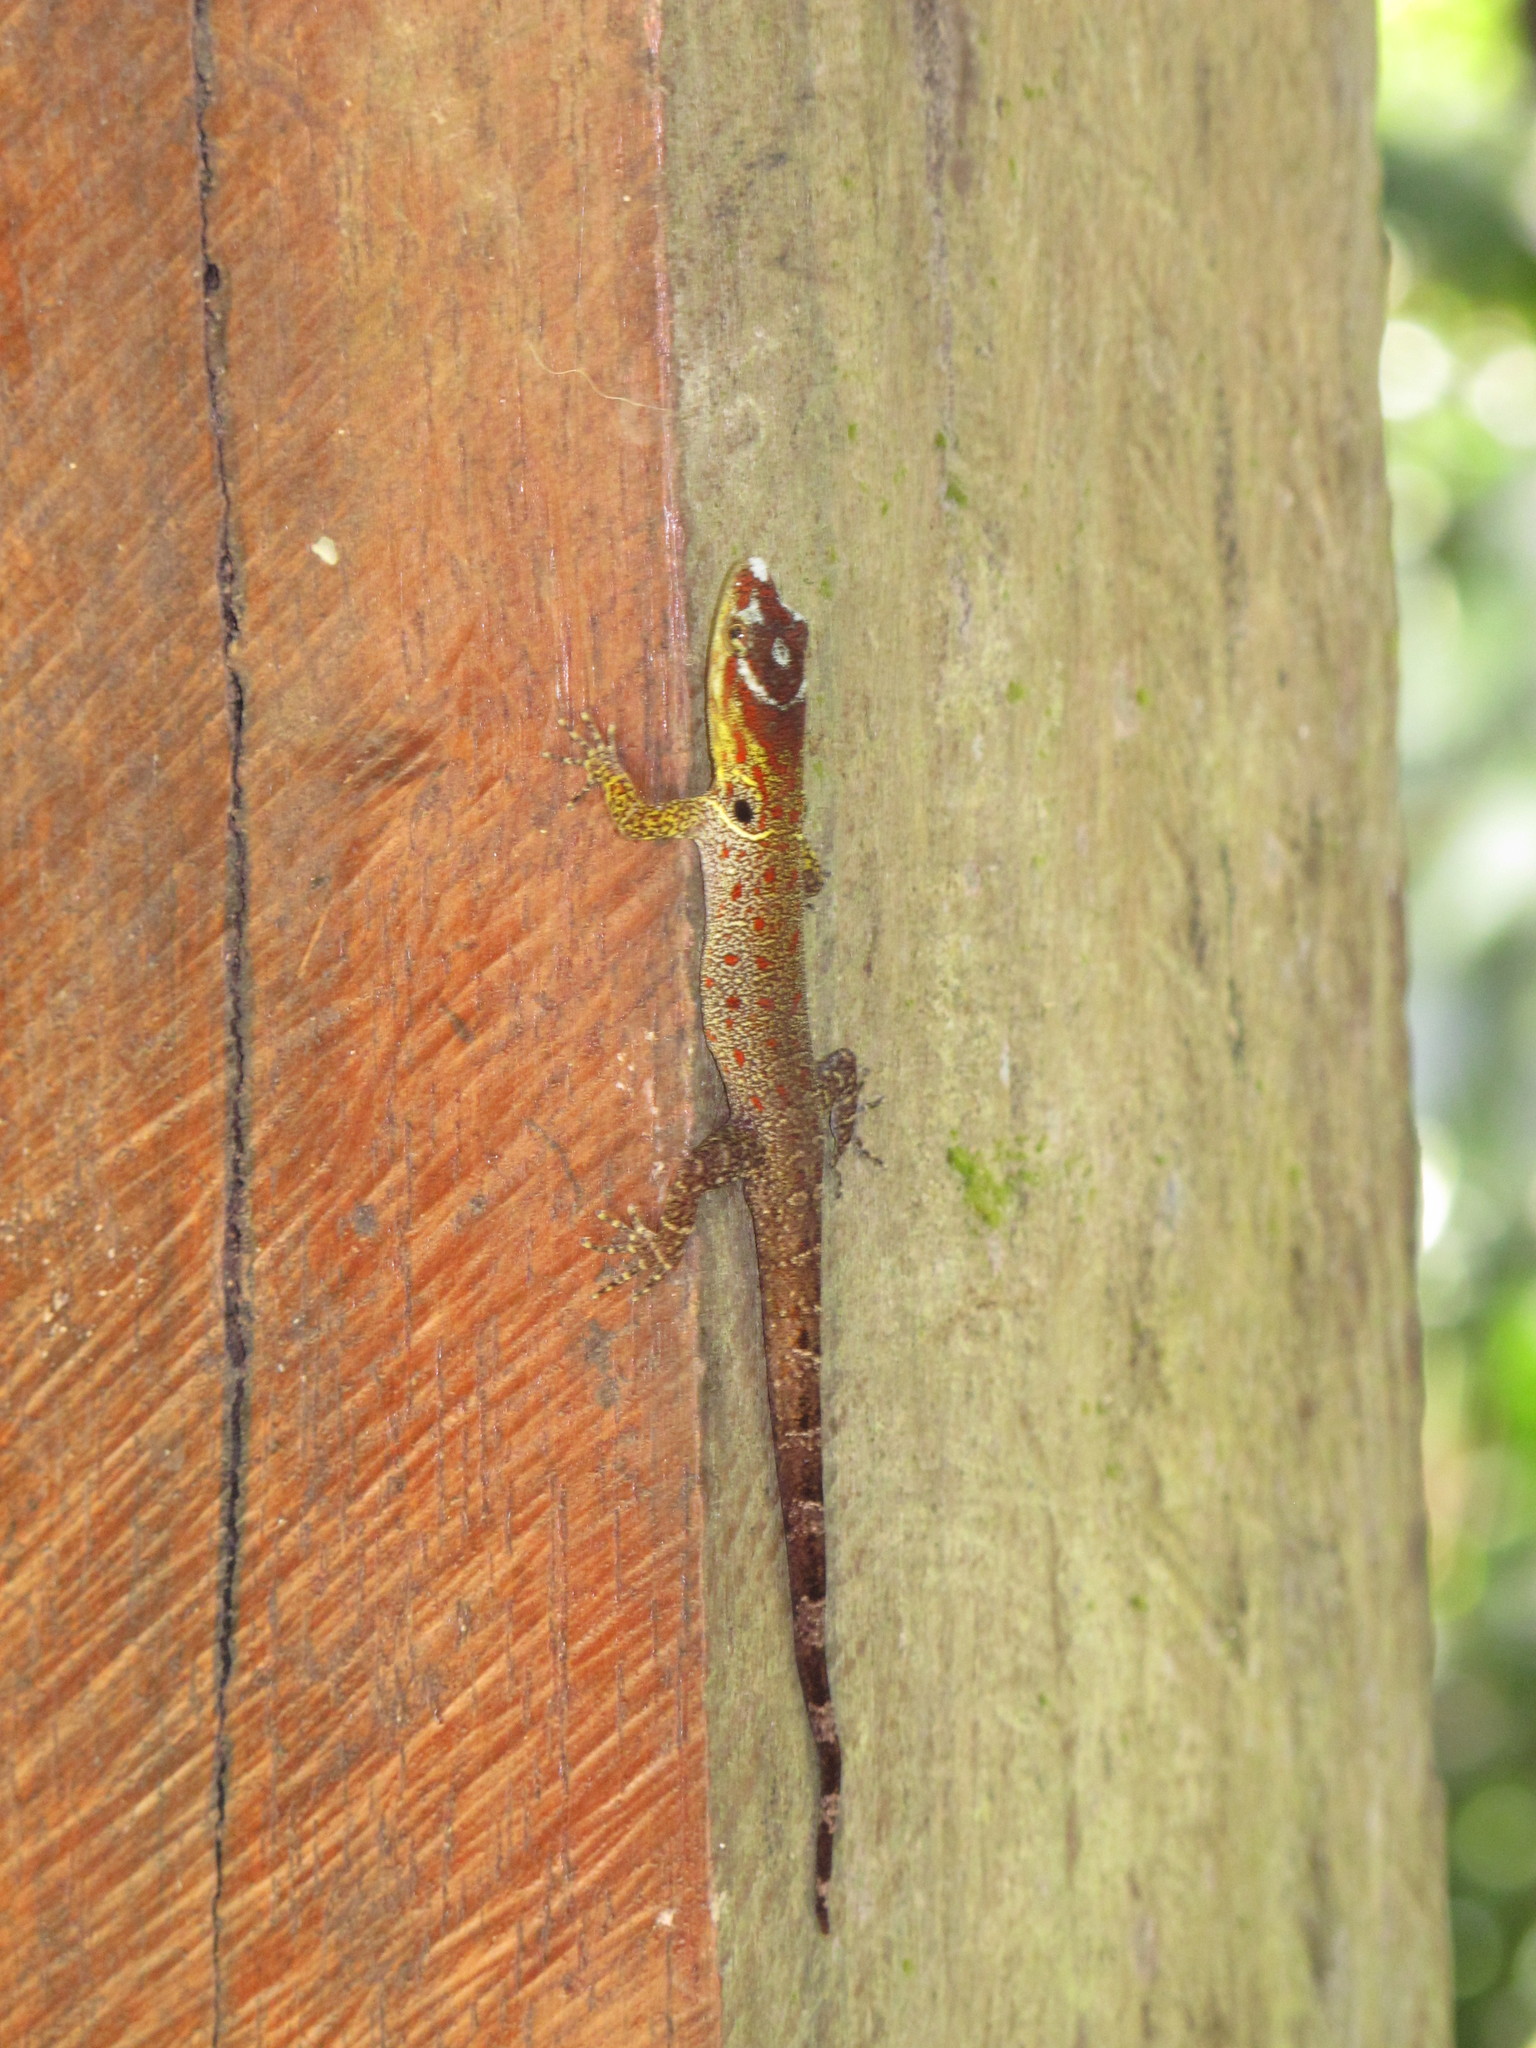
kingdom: Animalia
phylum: Chordata
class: Squamata
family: Sphaerodactylidae
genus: Gonatodes
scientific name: Gonatodes humeralis
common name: South american clawed gecko
